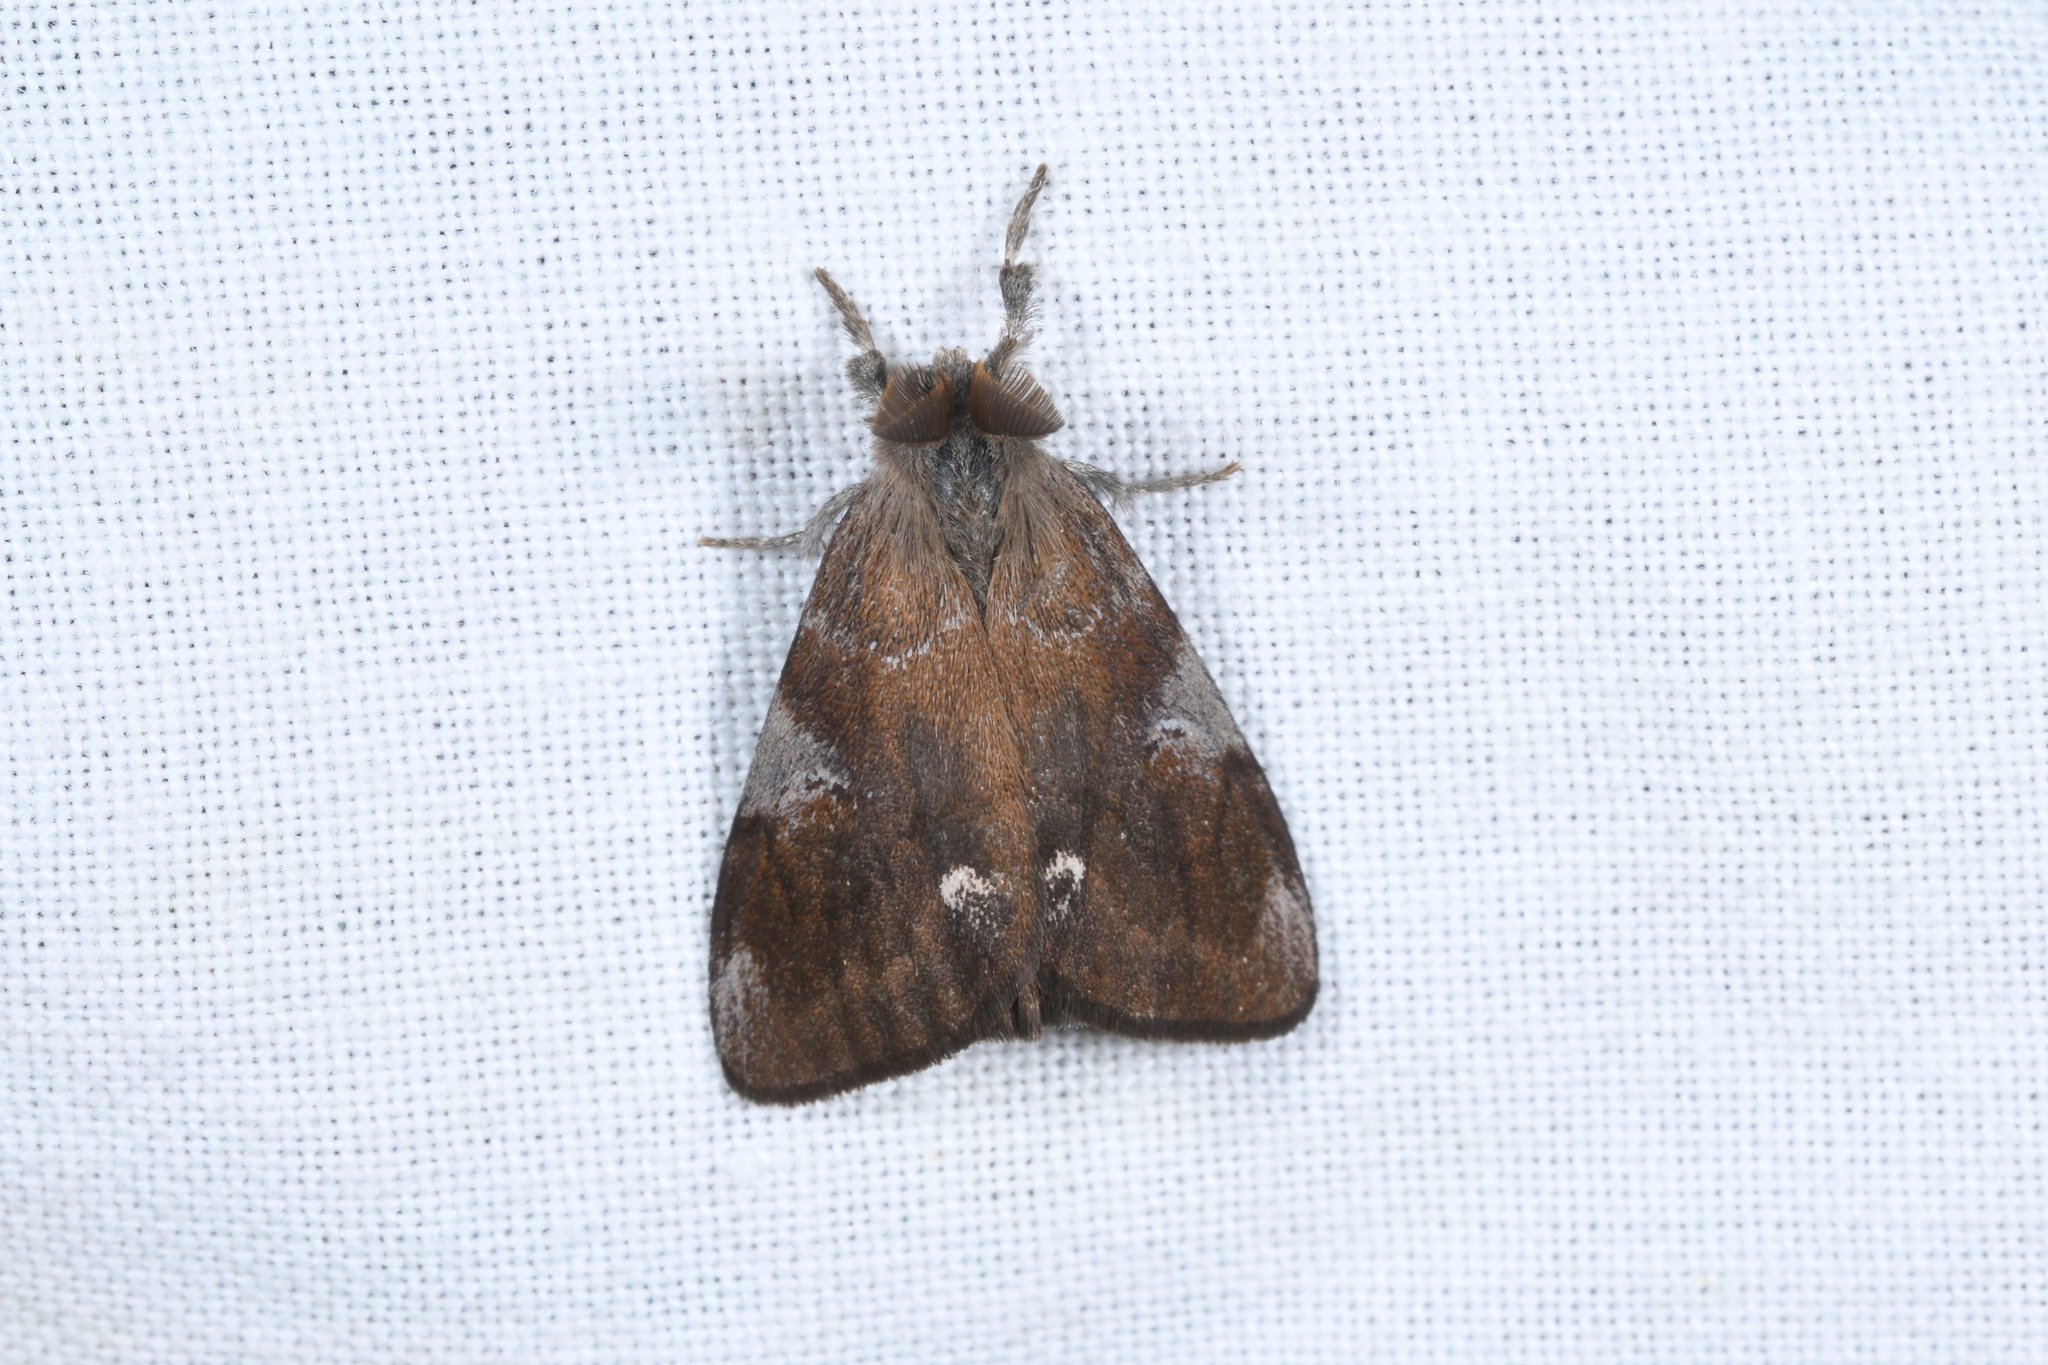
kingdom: Animalia
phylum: Arthropoda
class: Insecta
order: Lepidoptera
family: Erebidae
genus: Orgyia
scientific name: Orgyia trigotephras
